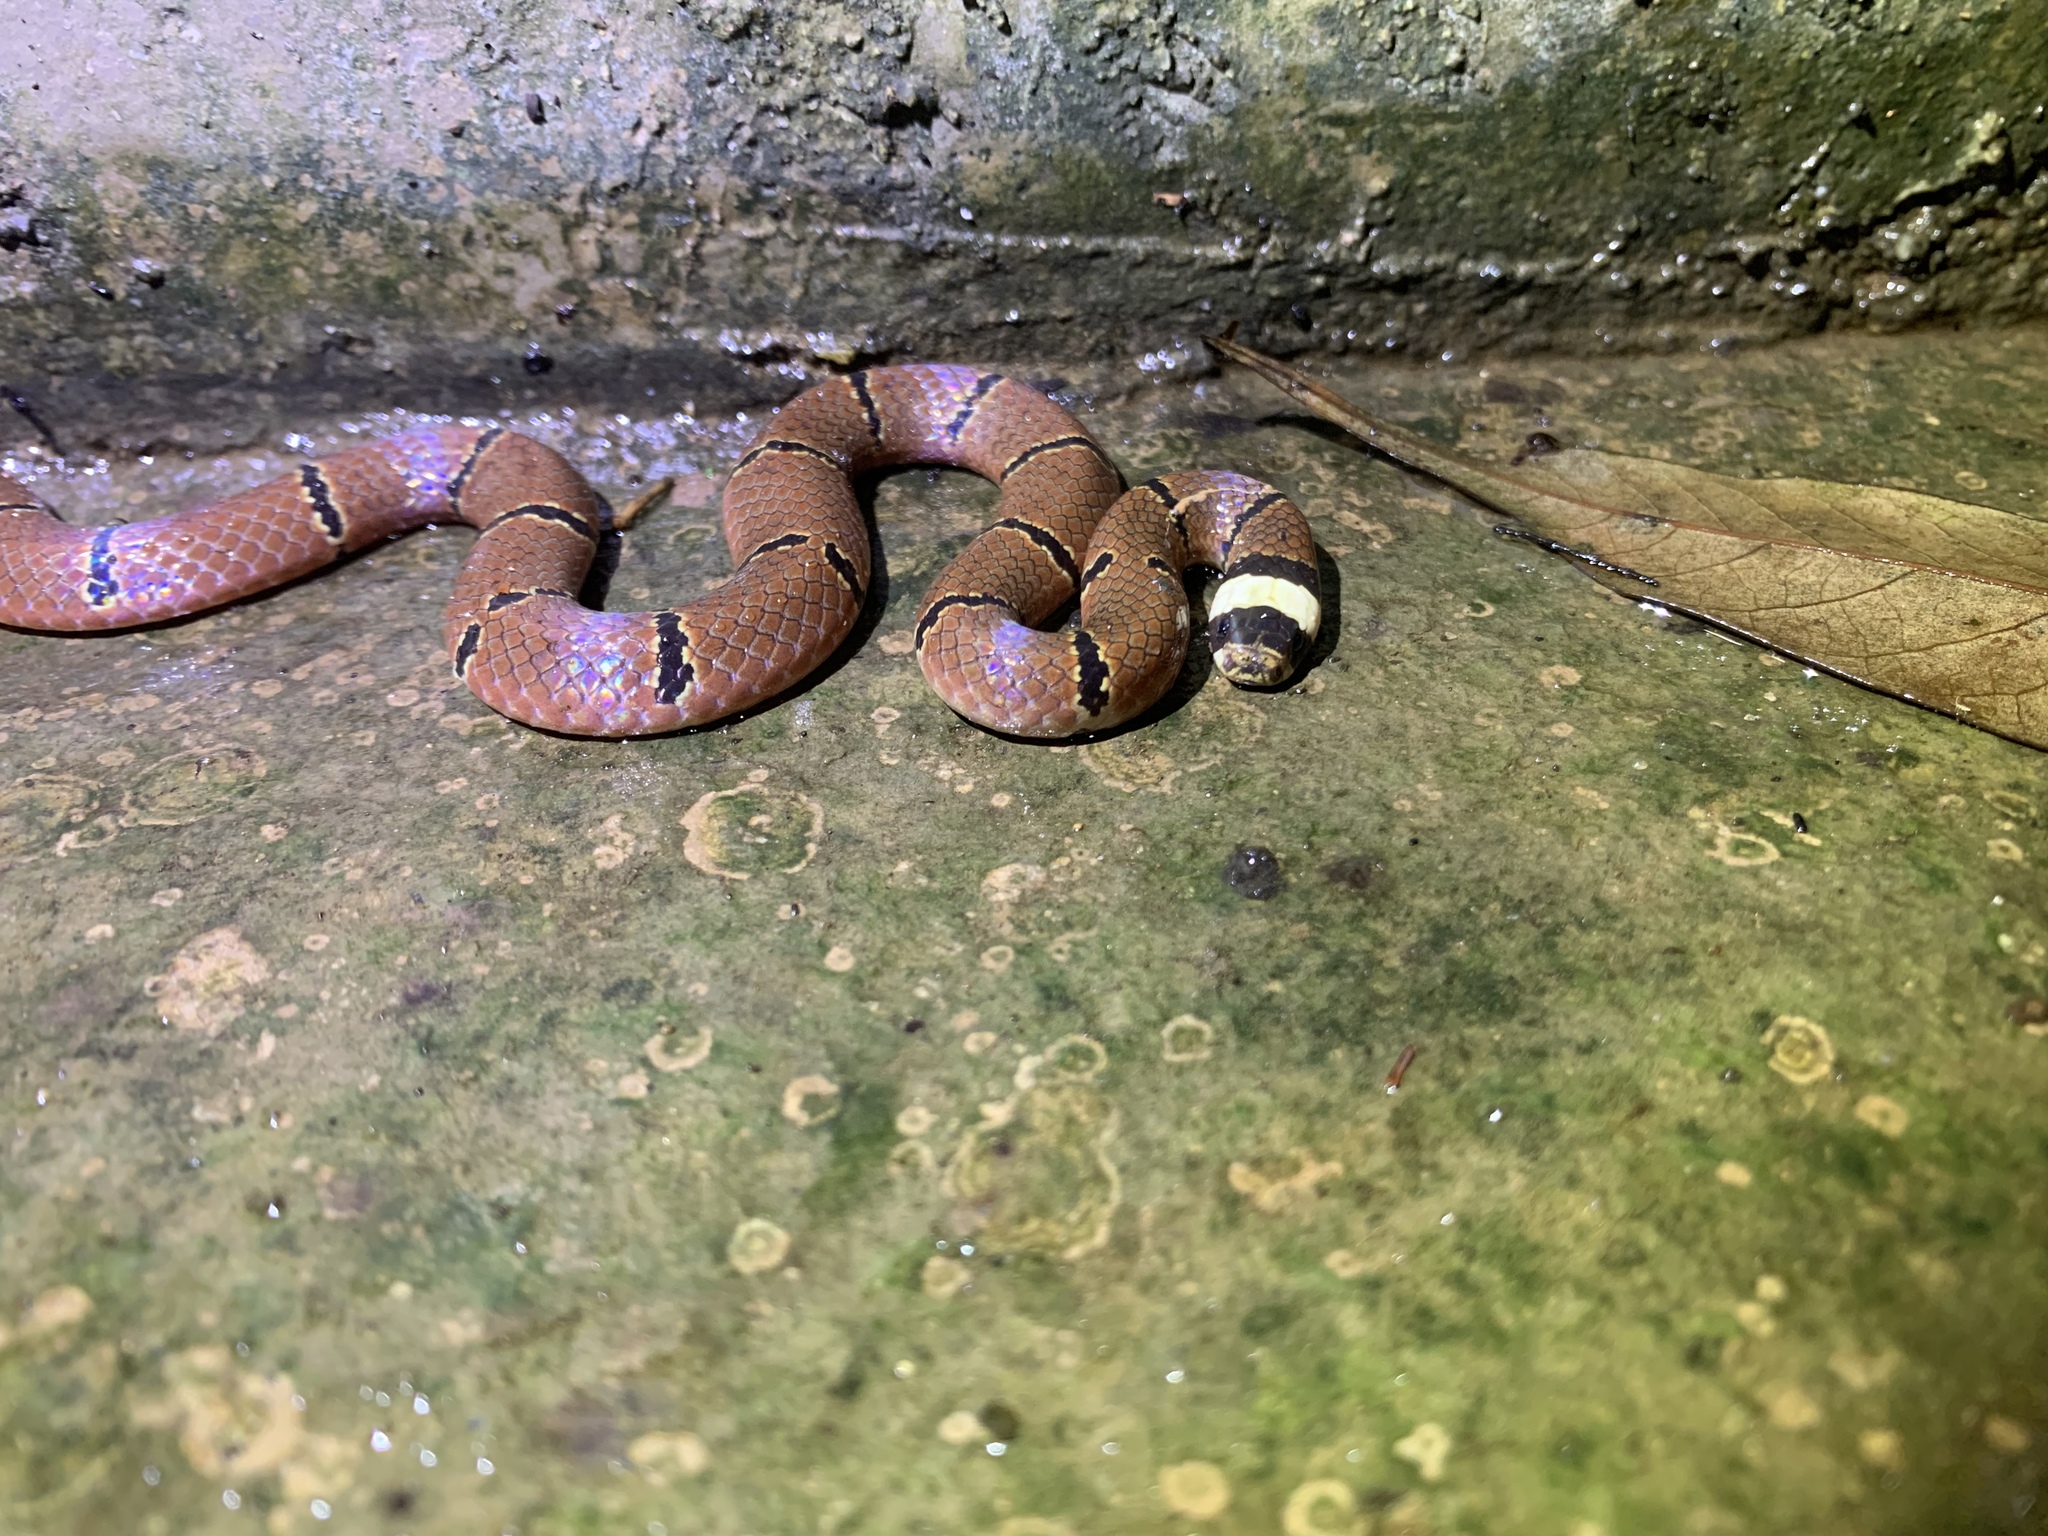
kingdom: Animalia
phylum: Chordata
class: Squamata
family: Elapidae
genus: Sinomicrurus
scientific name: Sinomicrurus macclellandi
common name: Maclelland's coral snake
